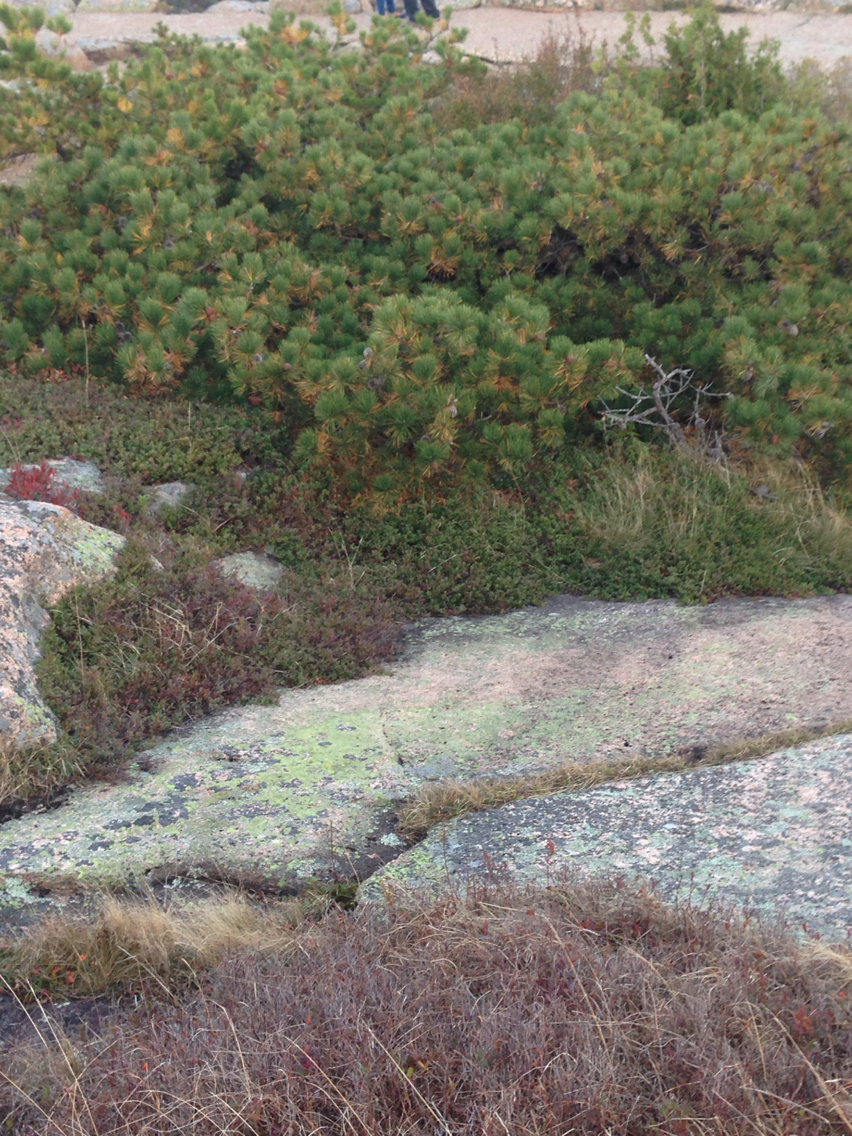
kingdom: Plantae
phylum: Tracheophyta
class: Pinopsida
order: Pinales
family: Pinaceae
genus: Pinus
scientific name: Pinus rigida
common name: Pitch pine
